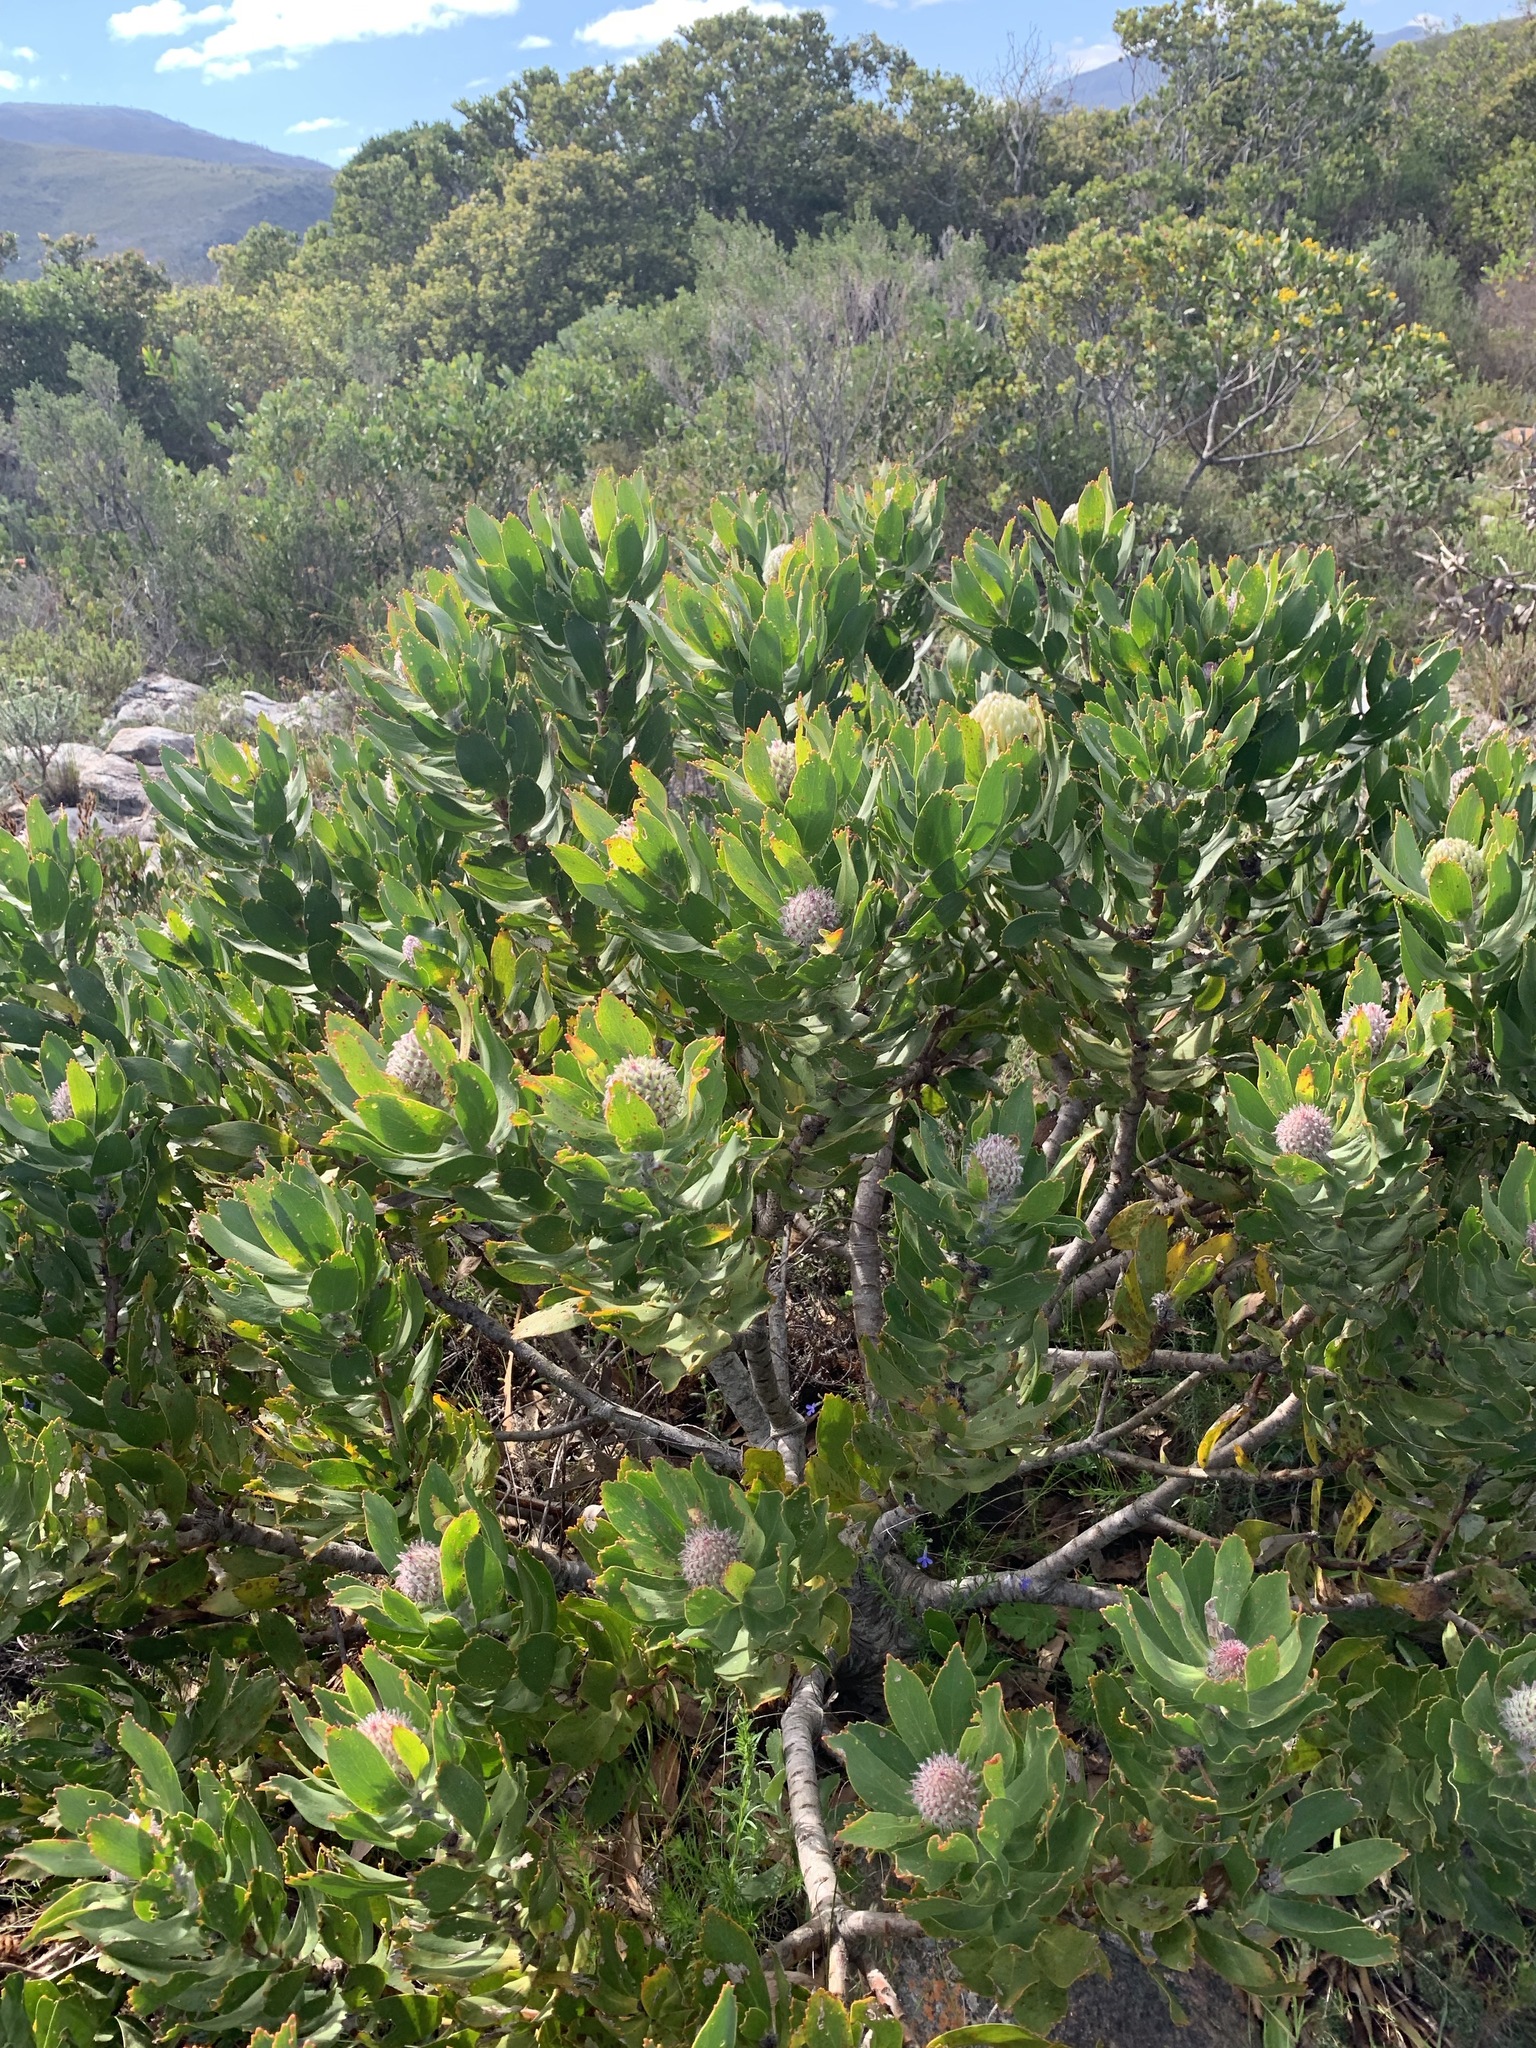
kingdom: Plantae
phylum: Tracheophyta
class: Magnoliopsida
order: Proteales
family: Proteaceae
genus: Leucospermum
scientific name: Leucospermum
